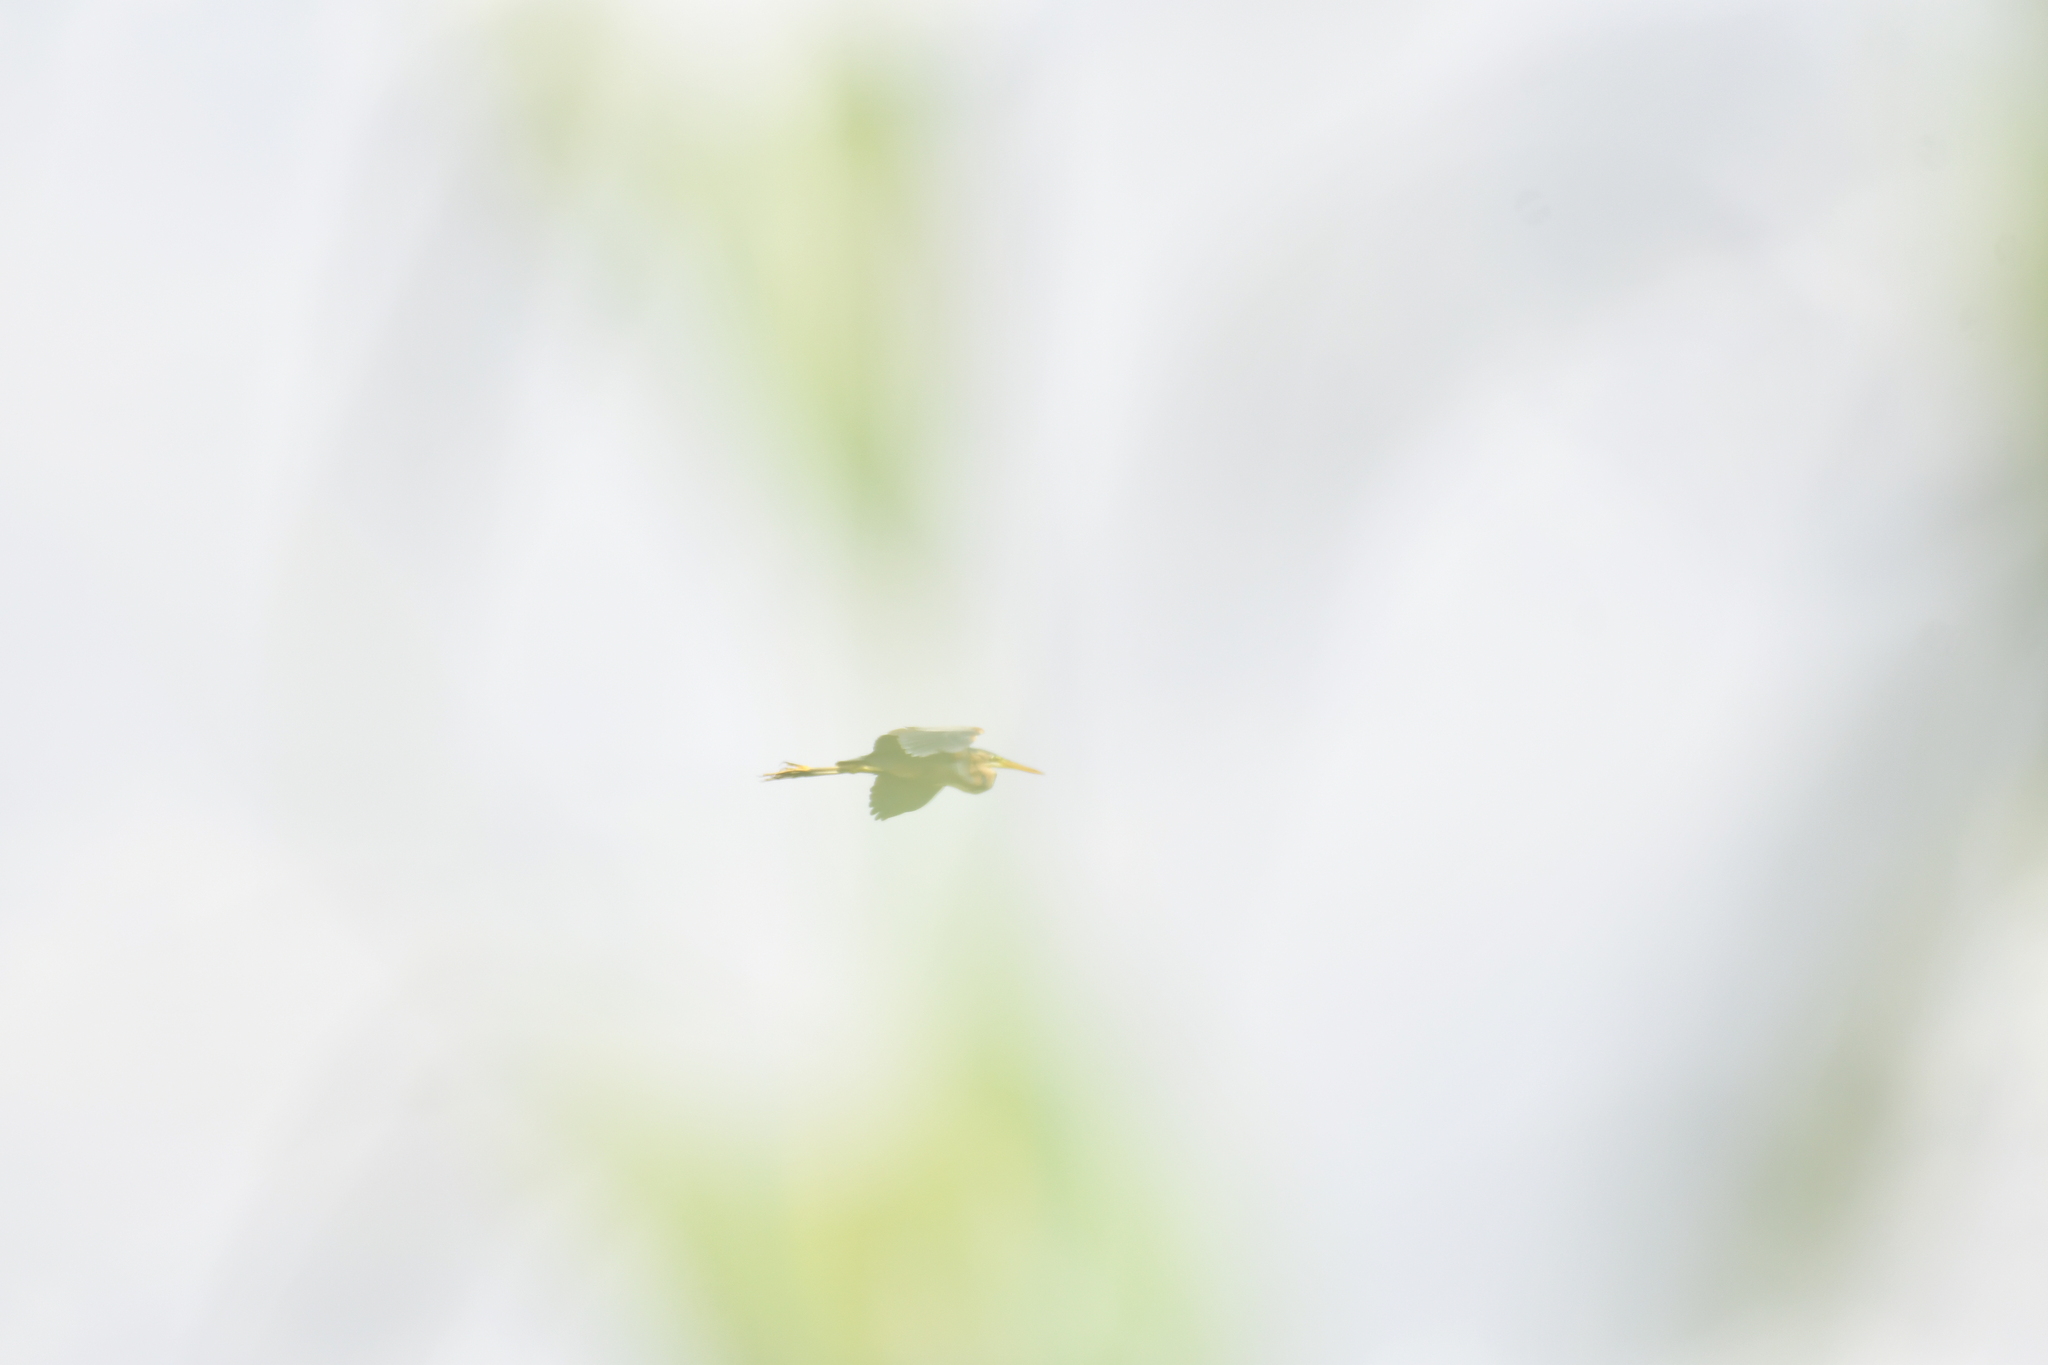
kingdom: Animalia
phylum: Chordata
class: Aves
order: Pelecaniformes
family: Ardeidae
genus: Ardea
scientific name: Ardea purpurea
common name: Purple heron
